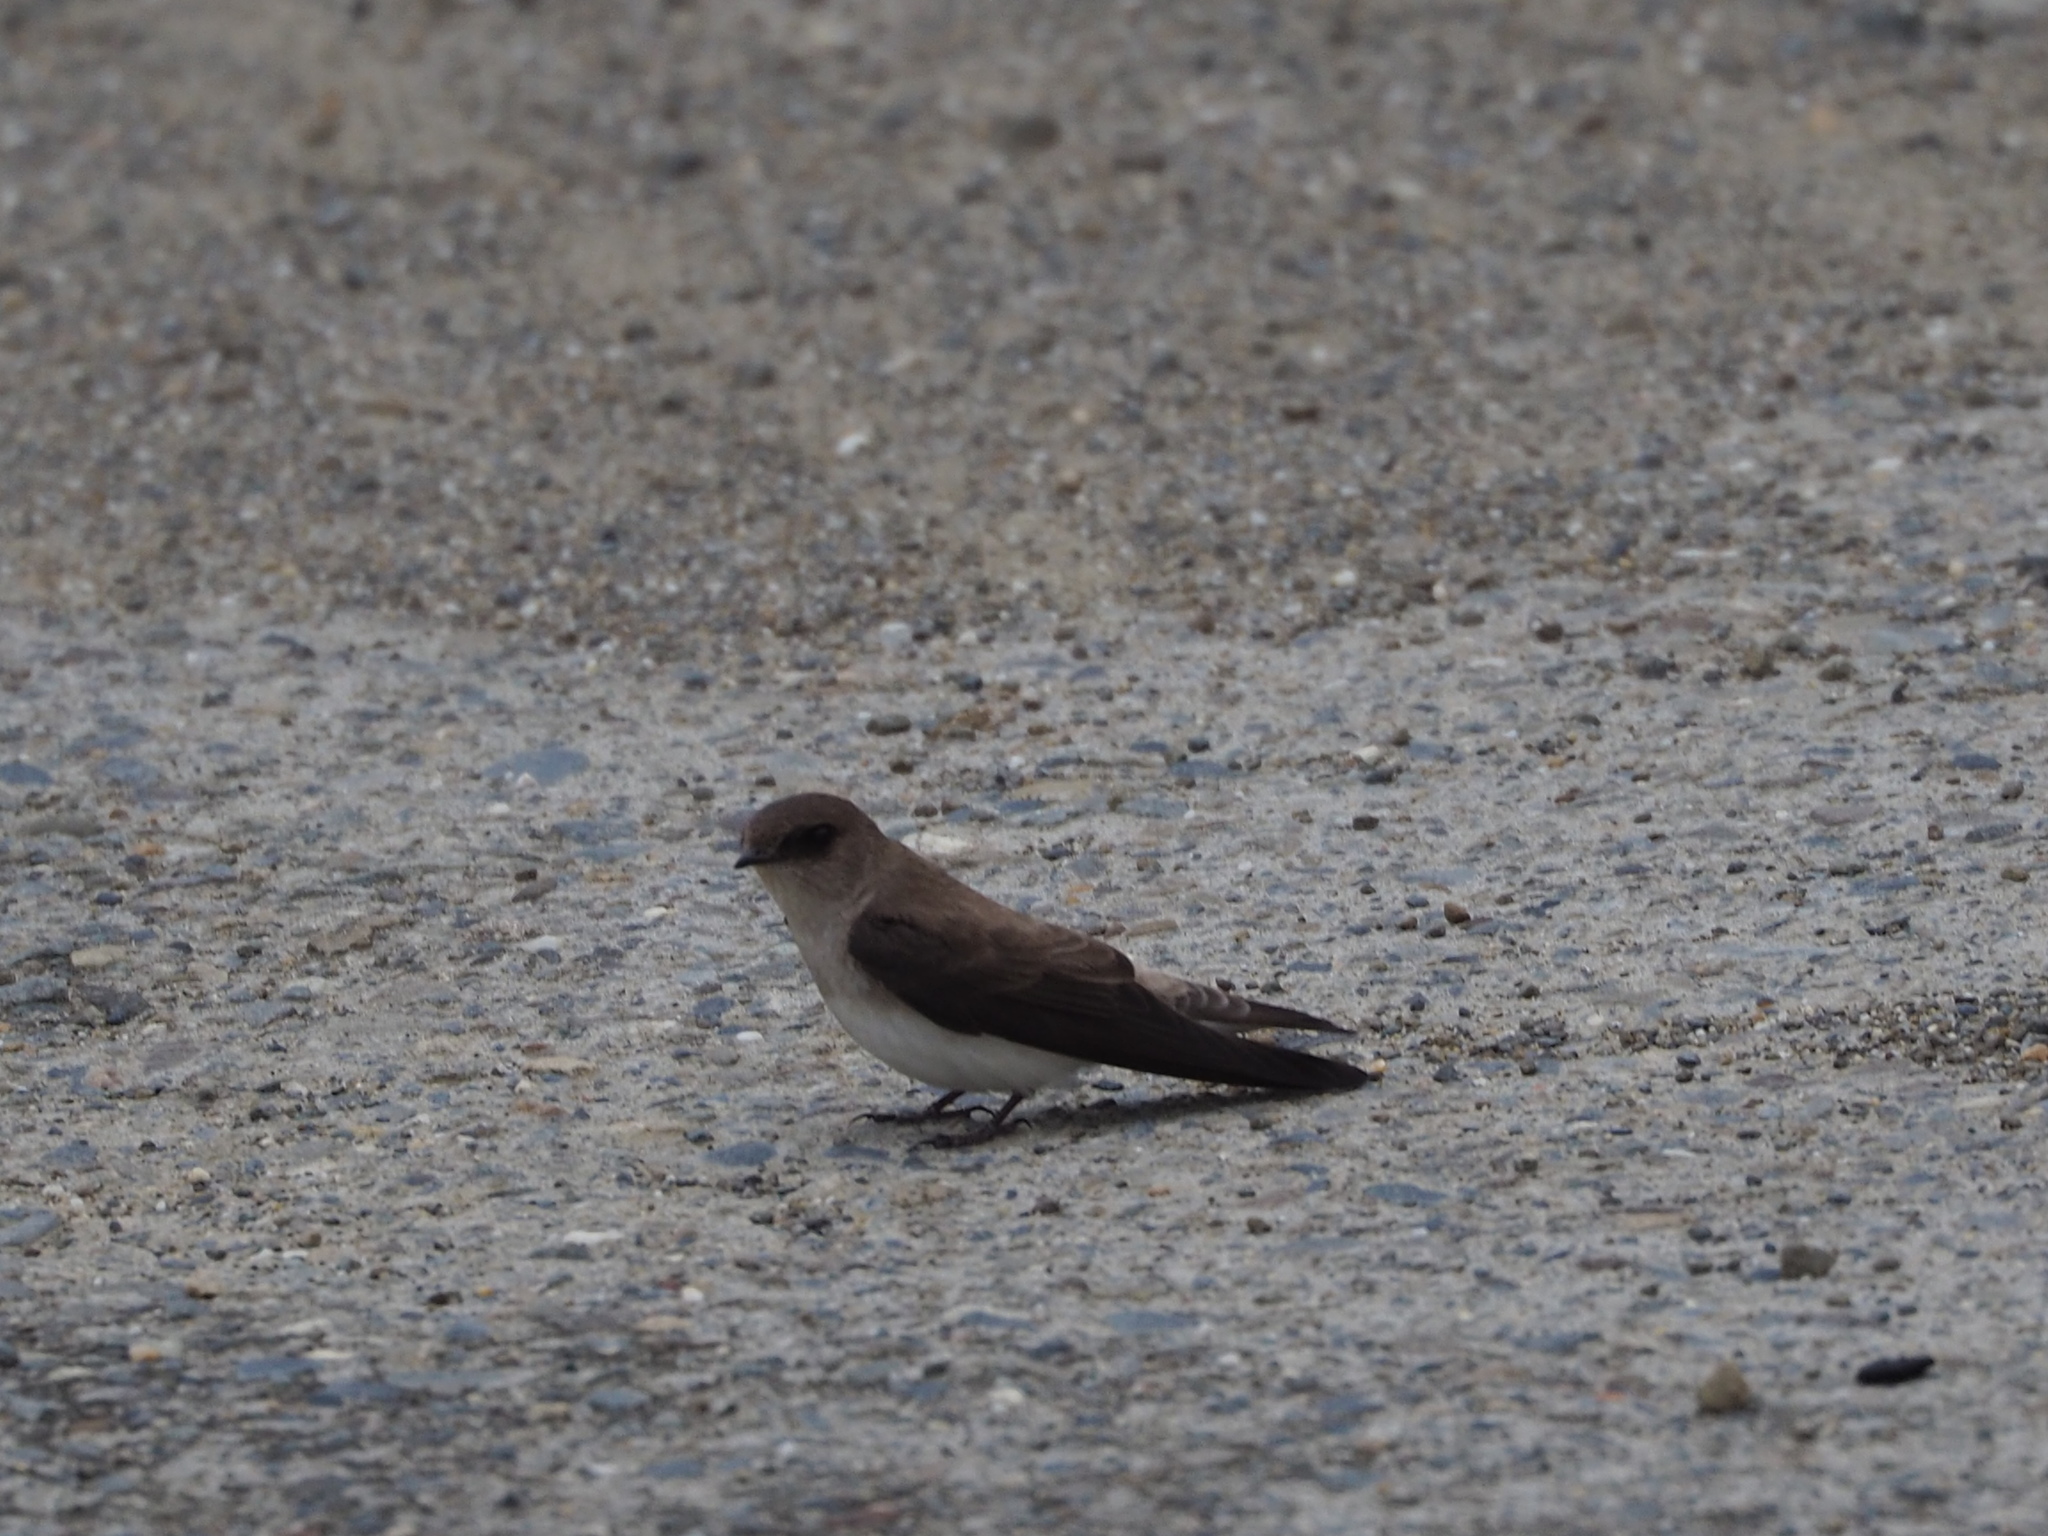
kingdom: Animalia
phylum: Chordata
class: Aves
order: Passeriformes
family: Hirundinidae
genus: Riparia
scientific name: Riparia chinensis
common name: Gray-throated martin
